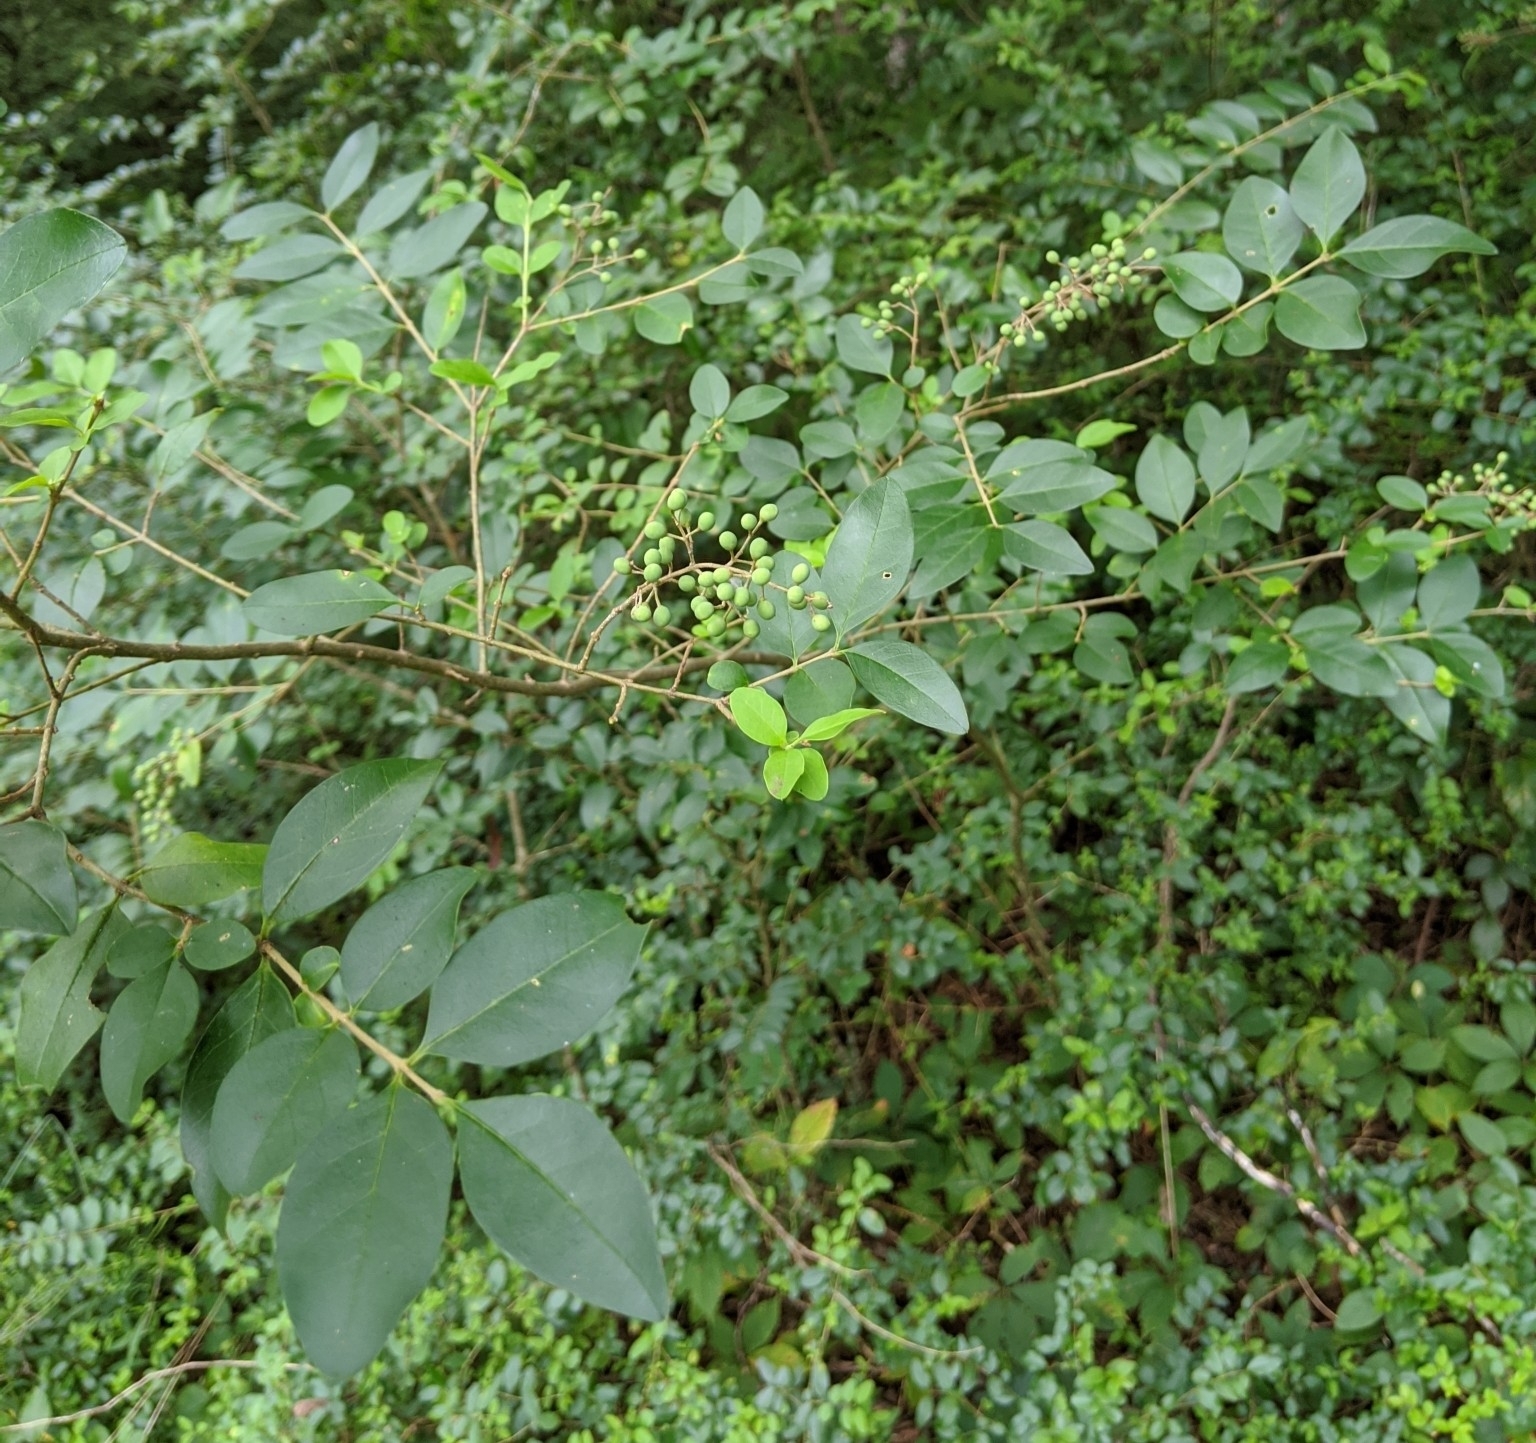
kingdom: Plantae
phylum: Tracheophyta
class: Magnoliopsida
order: Lamiales
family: Oleaceae
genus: Ligustrum
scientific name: Ligustrum sinense
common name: Chinese privet
